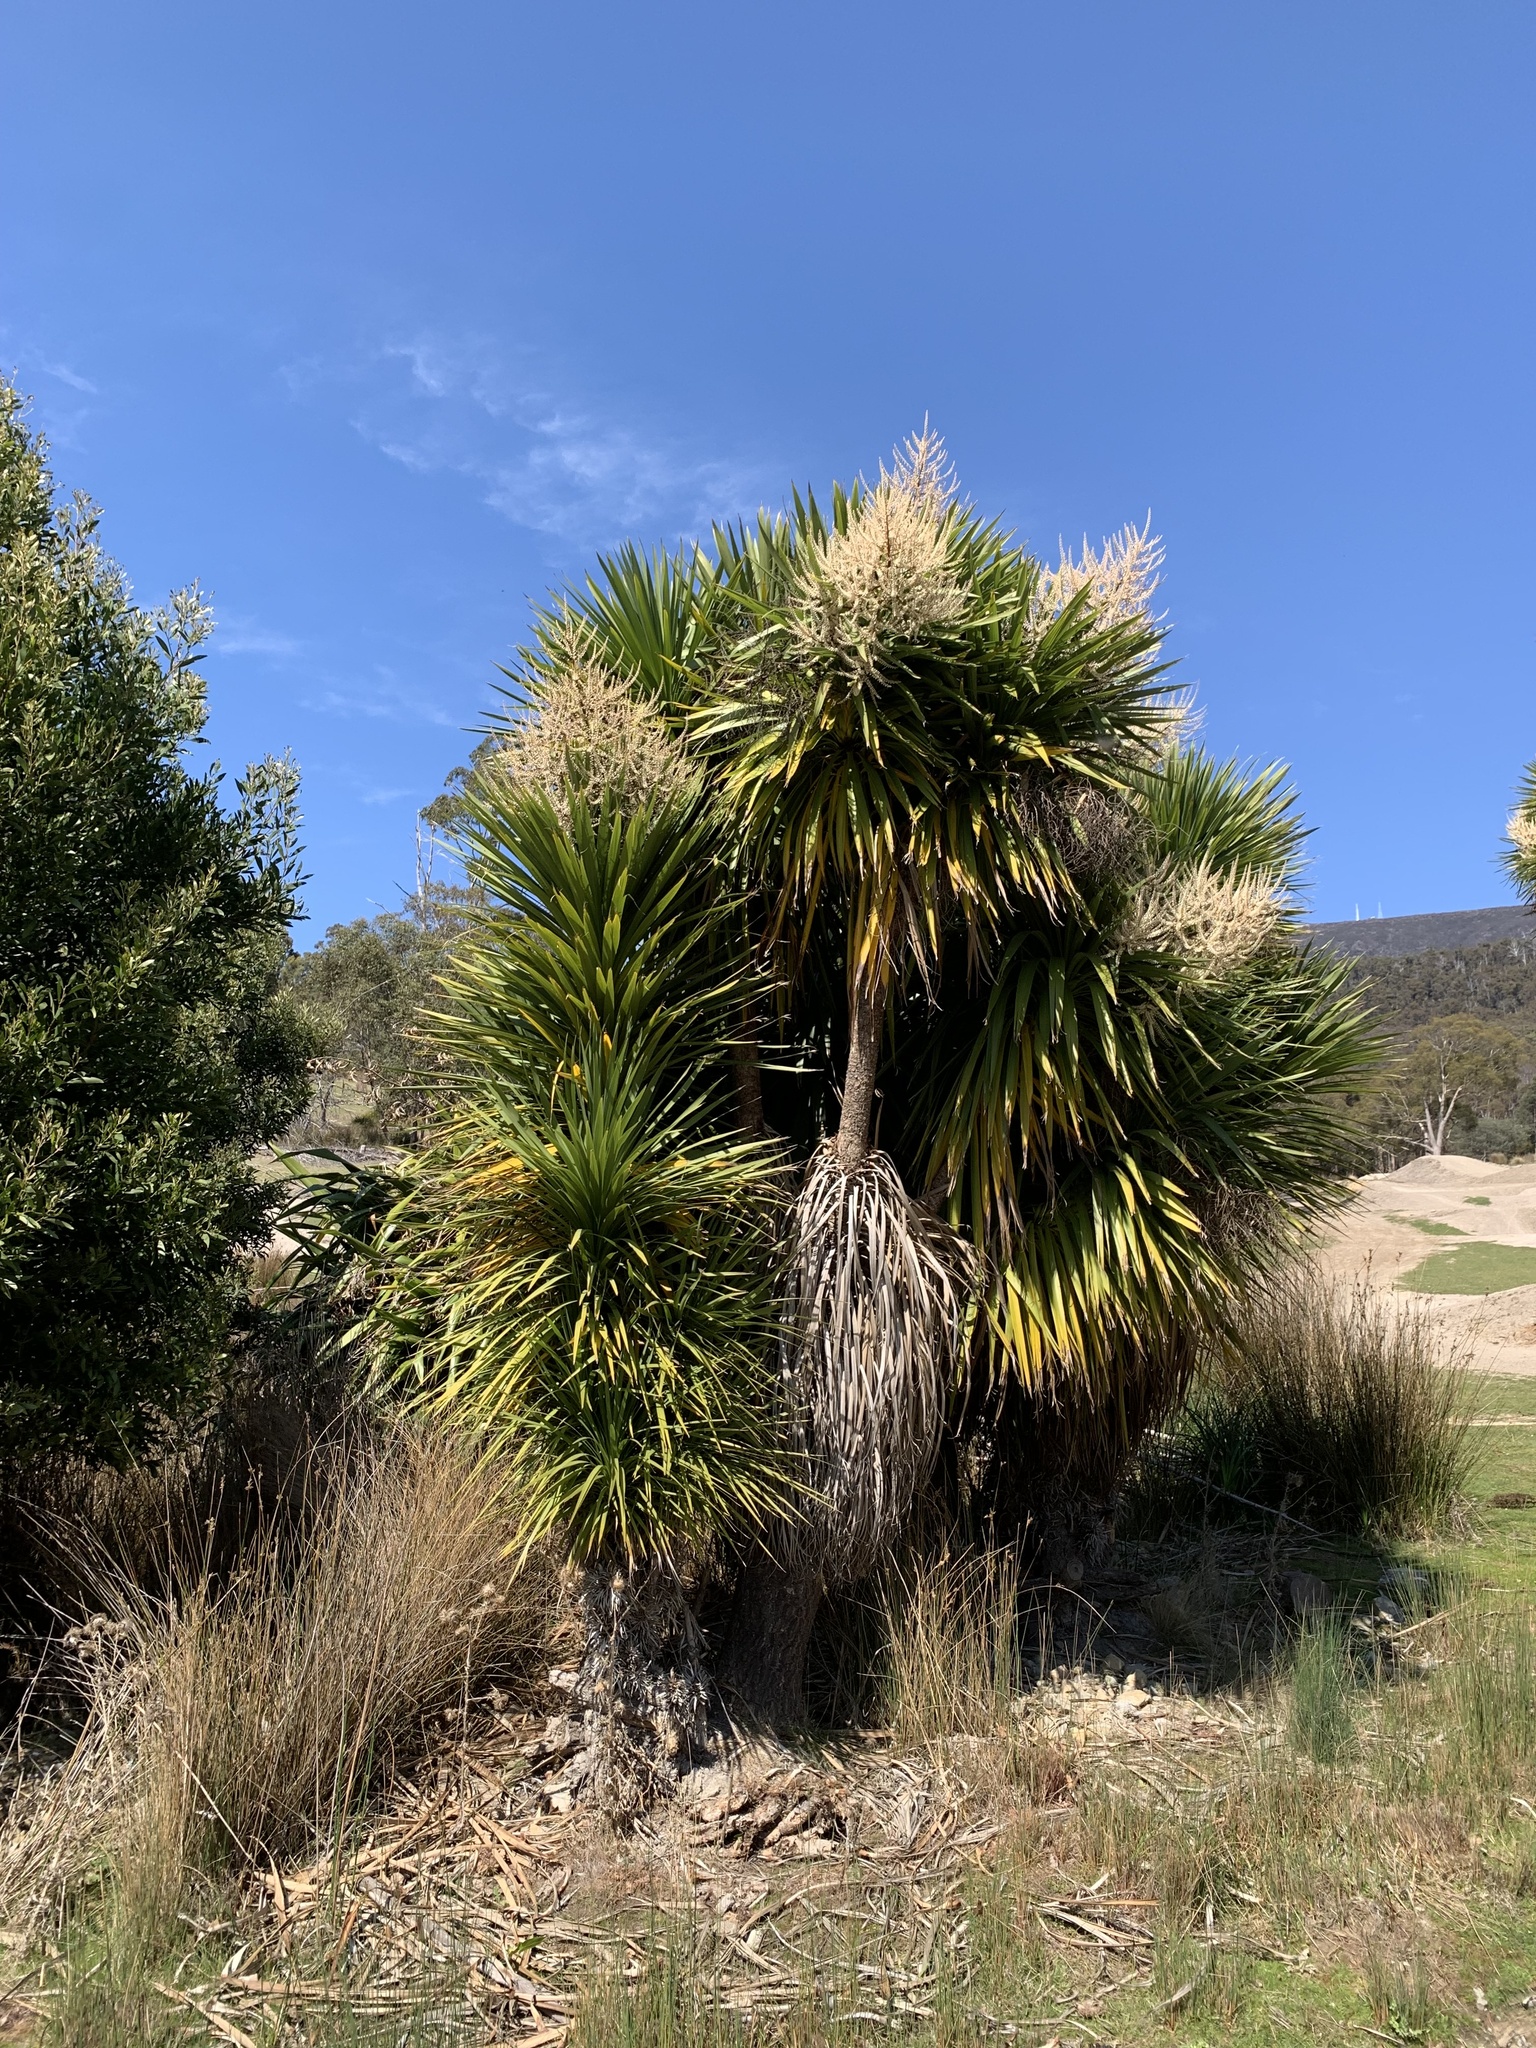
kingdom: Plantae
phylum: Tracheophyta
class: Liliopsida
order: Asparagales
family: Asparagaceae
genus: Cordyline
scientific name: Cordyline australis
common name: Cabbage-palm
